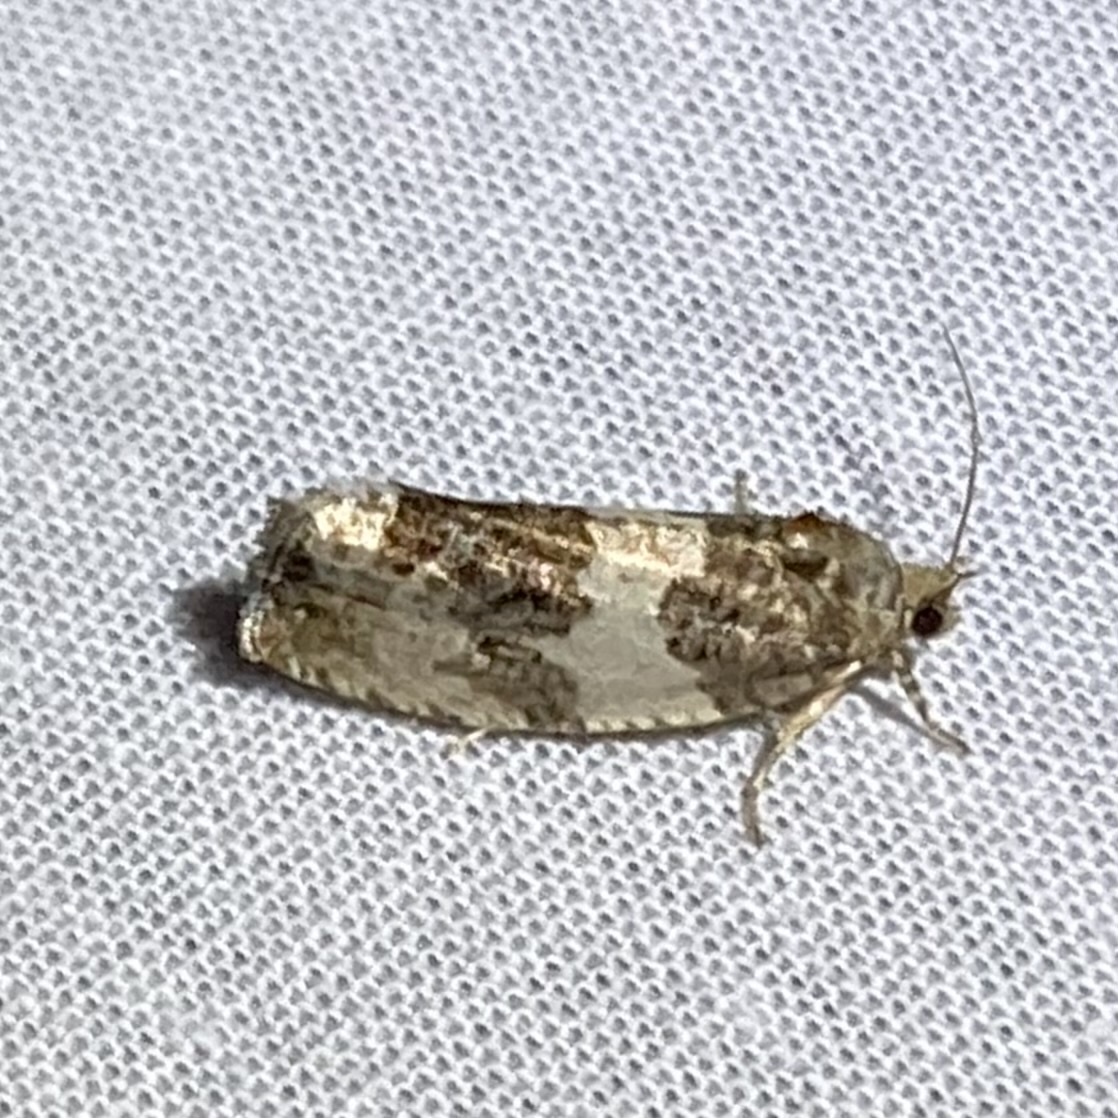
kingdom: Animalia
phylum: Arthropoda
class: Insecta
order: Lepidoptera
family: Tortricidae
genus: Pseudosciaphila
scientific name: Pseudosciaphila duplex
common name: Poplar leafroller moth
